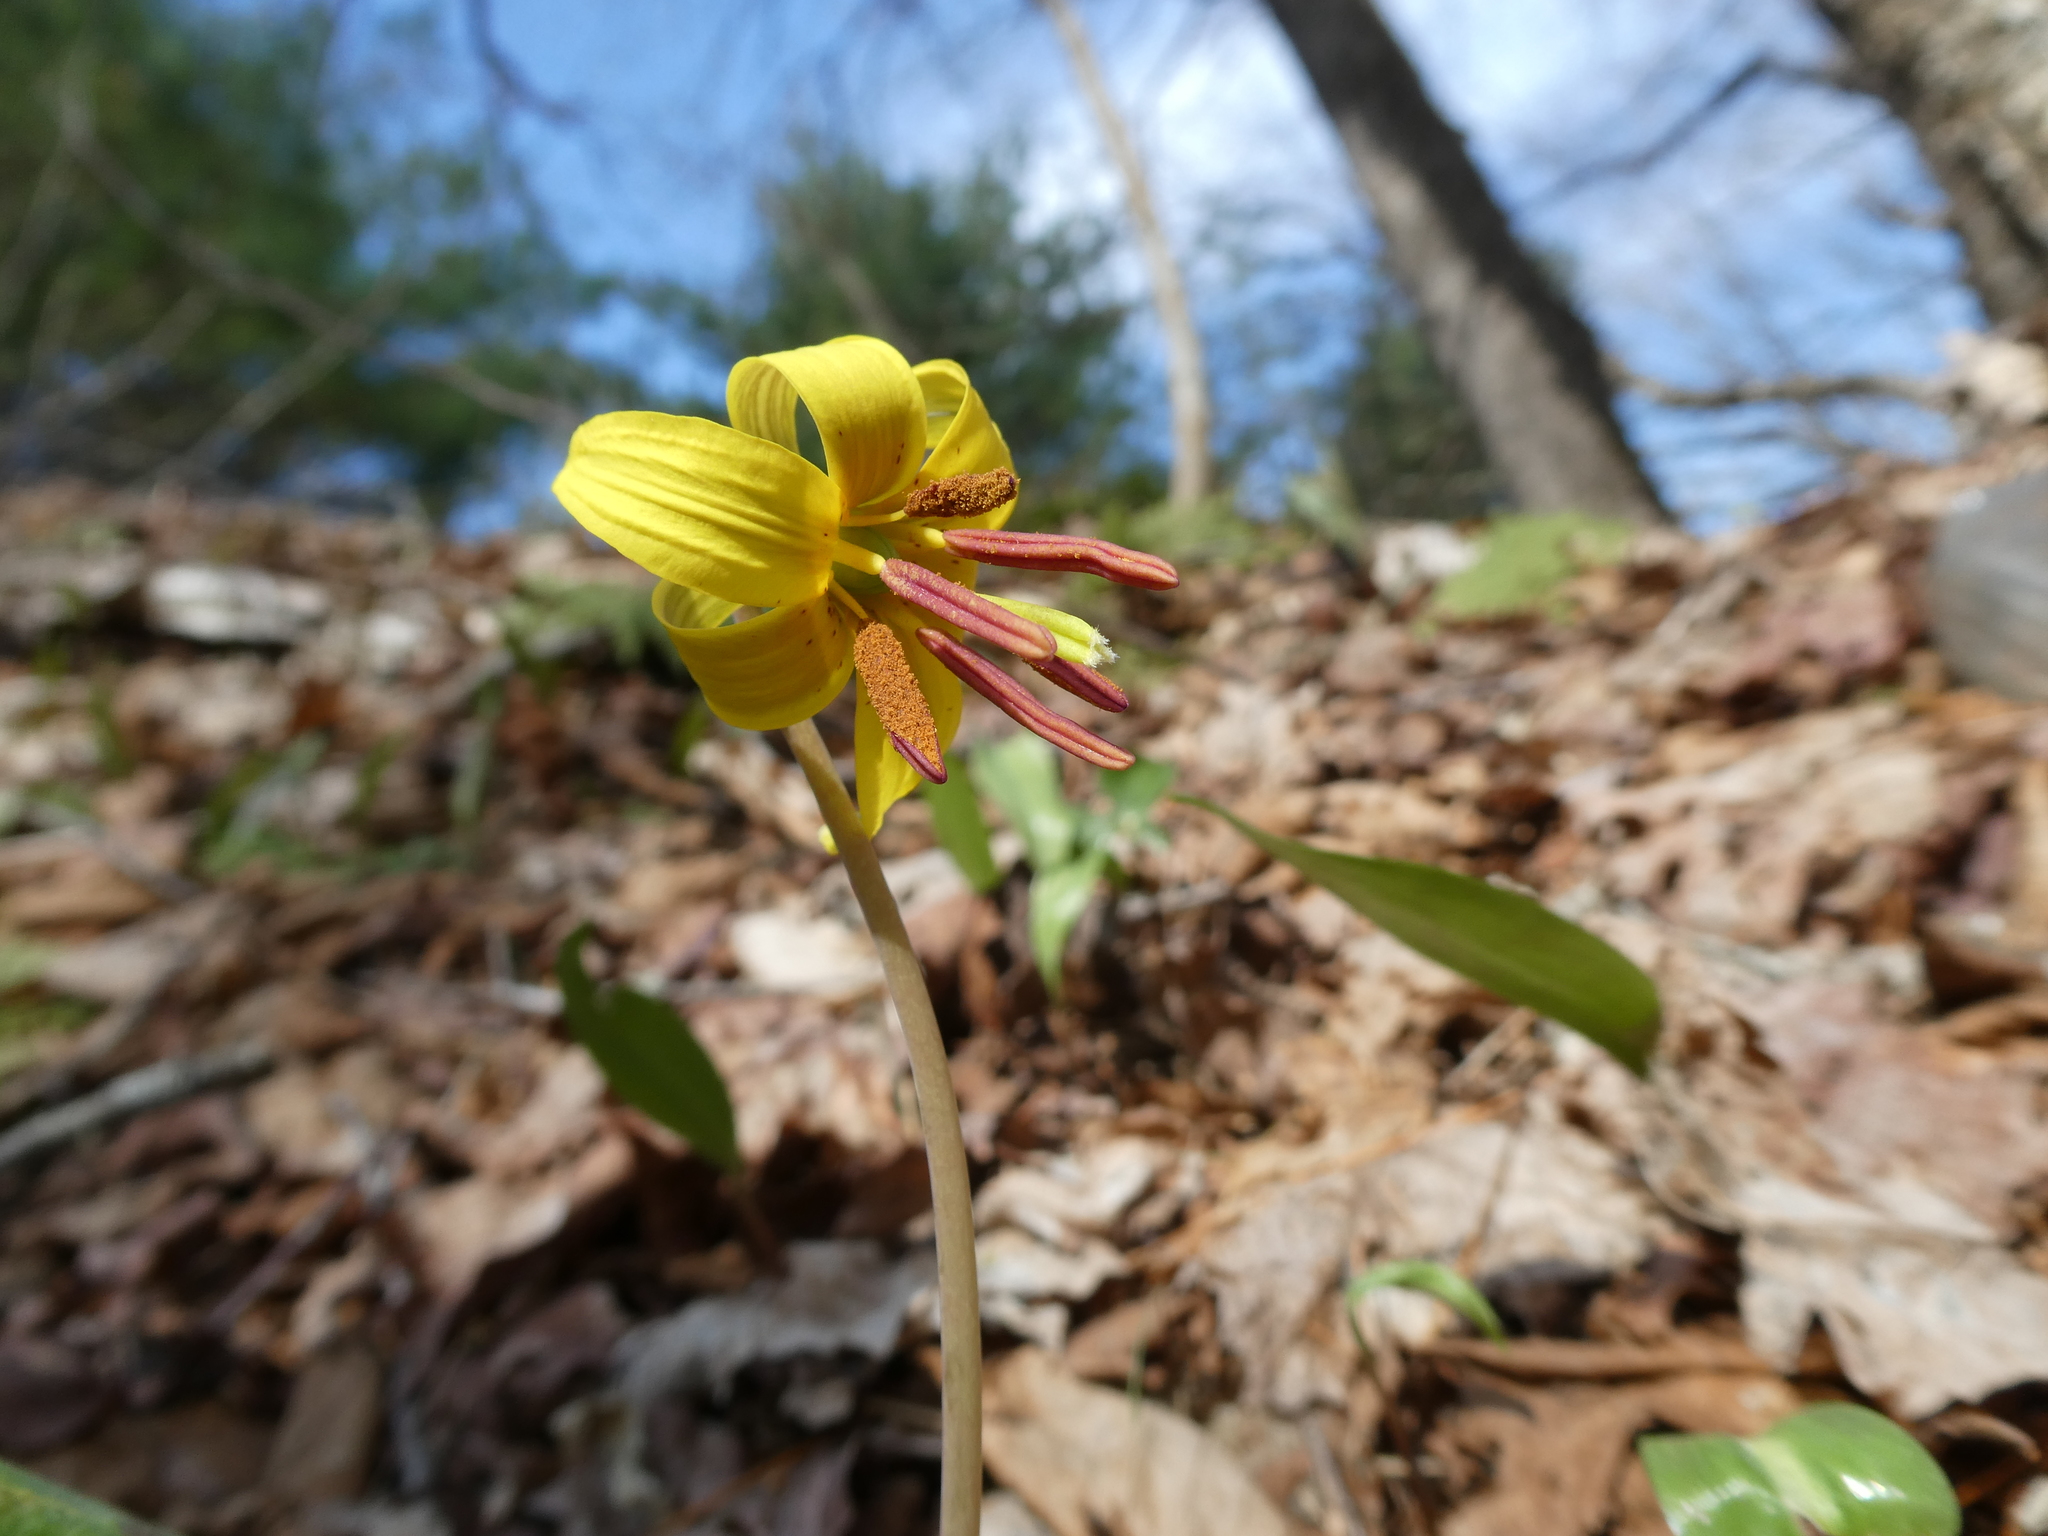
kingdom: Plantae
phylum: Tracheophyta
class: Liliopsida
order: Liliales
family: Liliaceae
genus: Erythronium
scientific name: Erythronium americanum
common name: Yellow adder's-tongue
